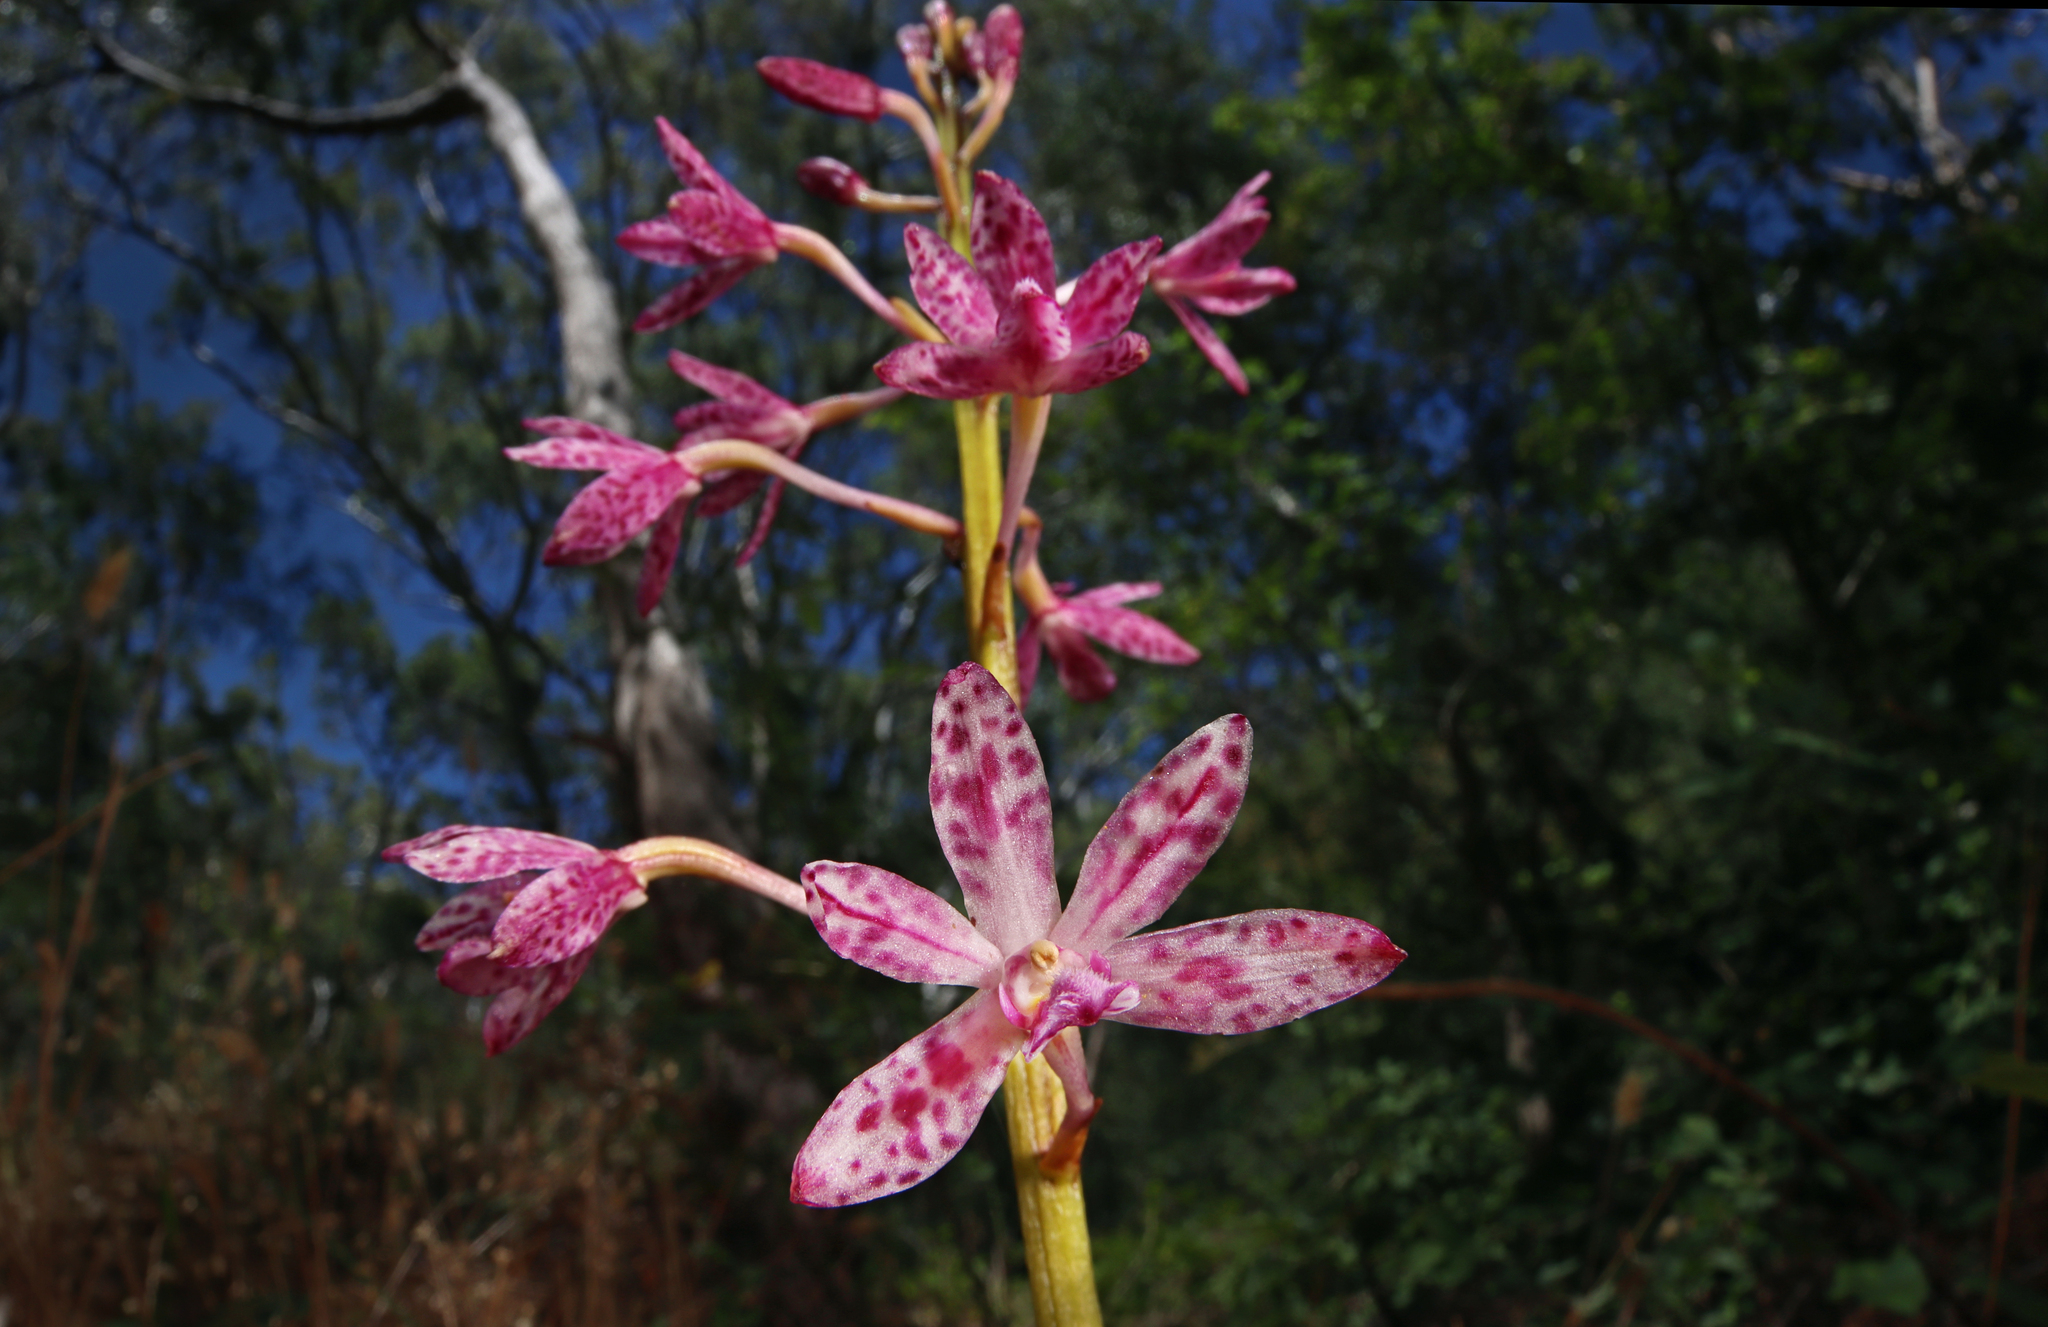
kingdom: Plantae
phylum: Tracheophyta
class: Liliopsida
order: Asparagales
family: Orchidaceae
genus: Dipodium
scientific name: Dipodium campanulatum
